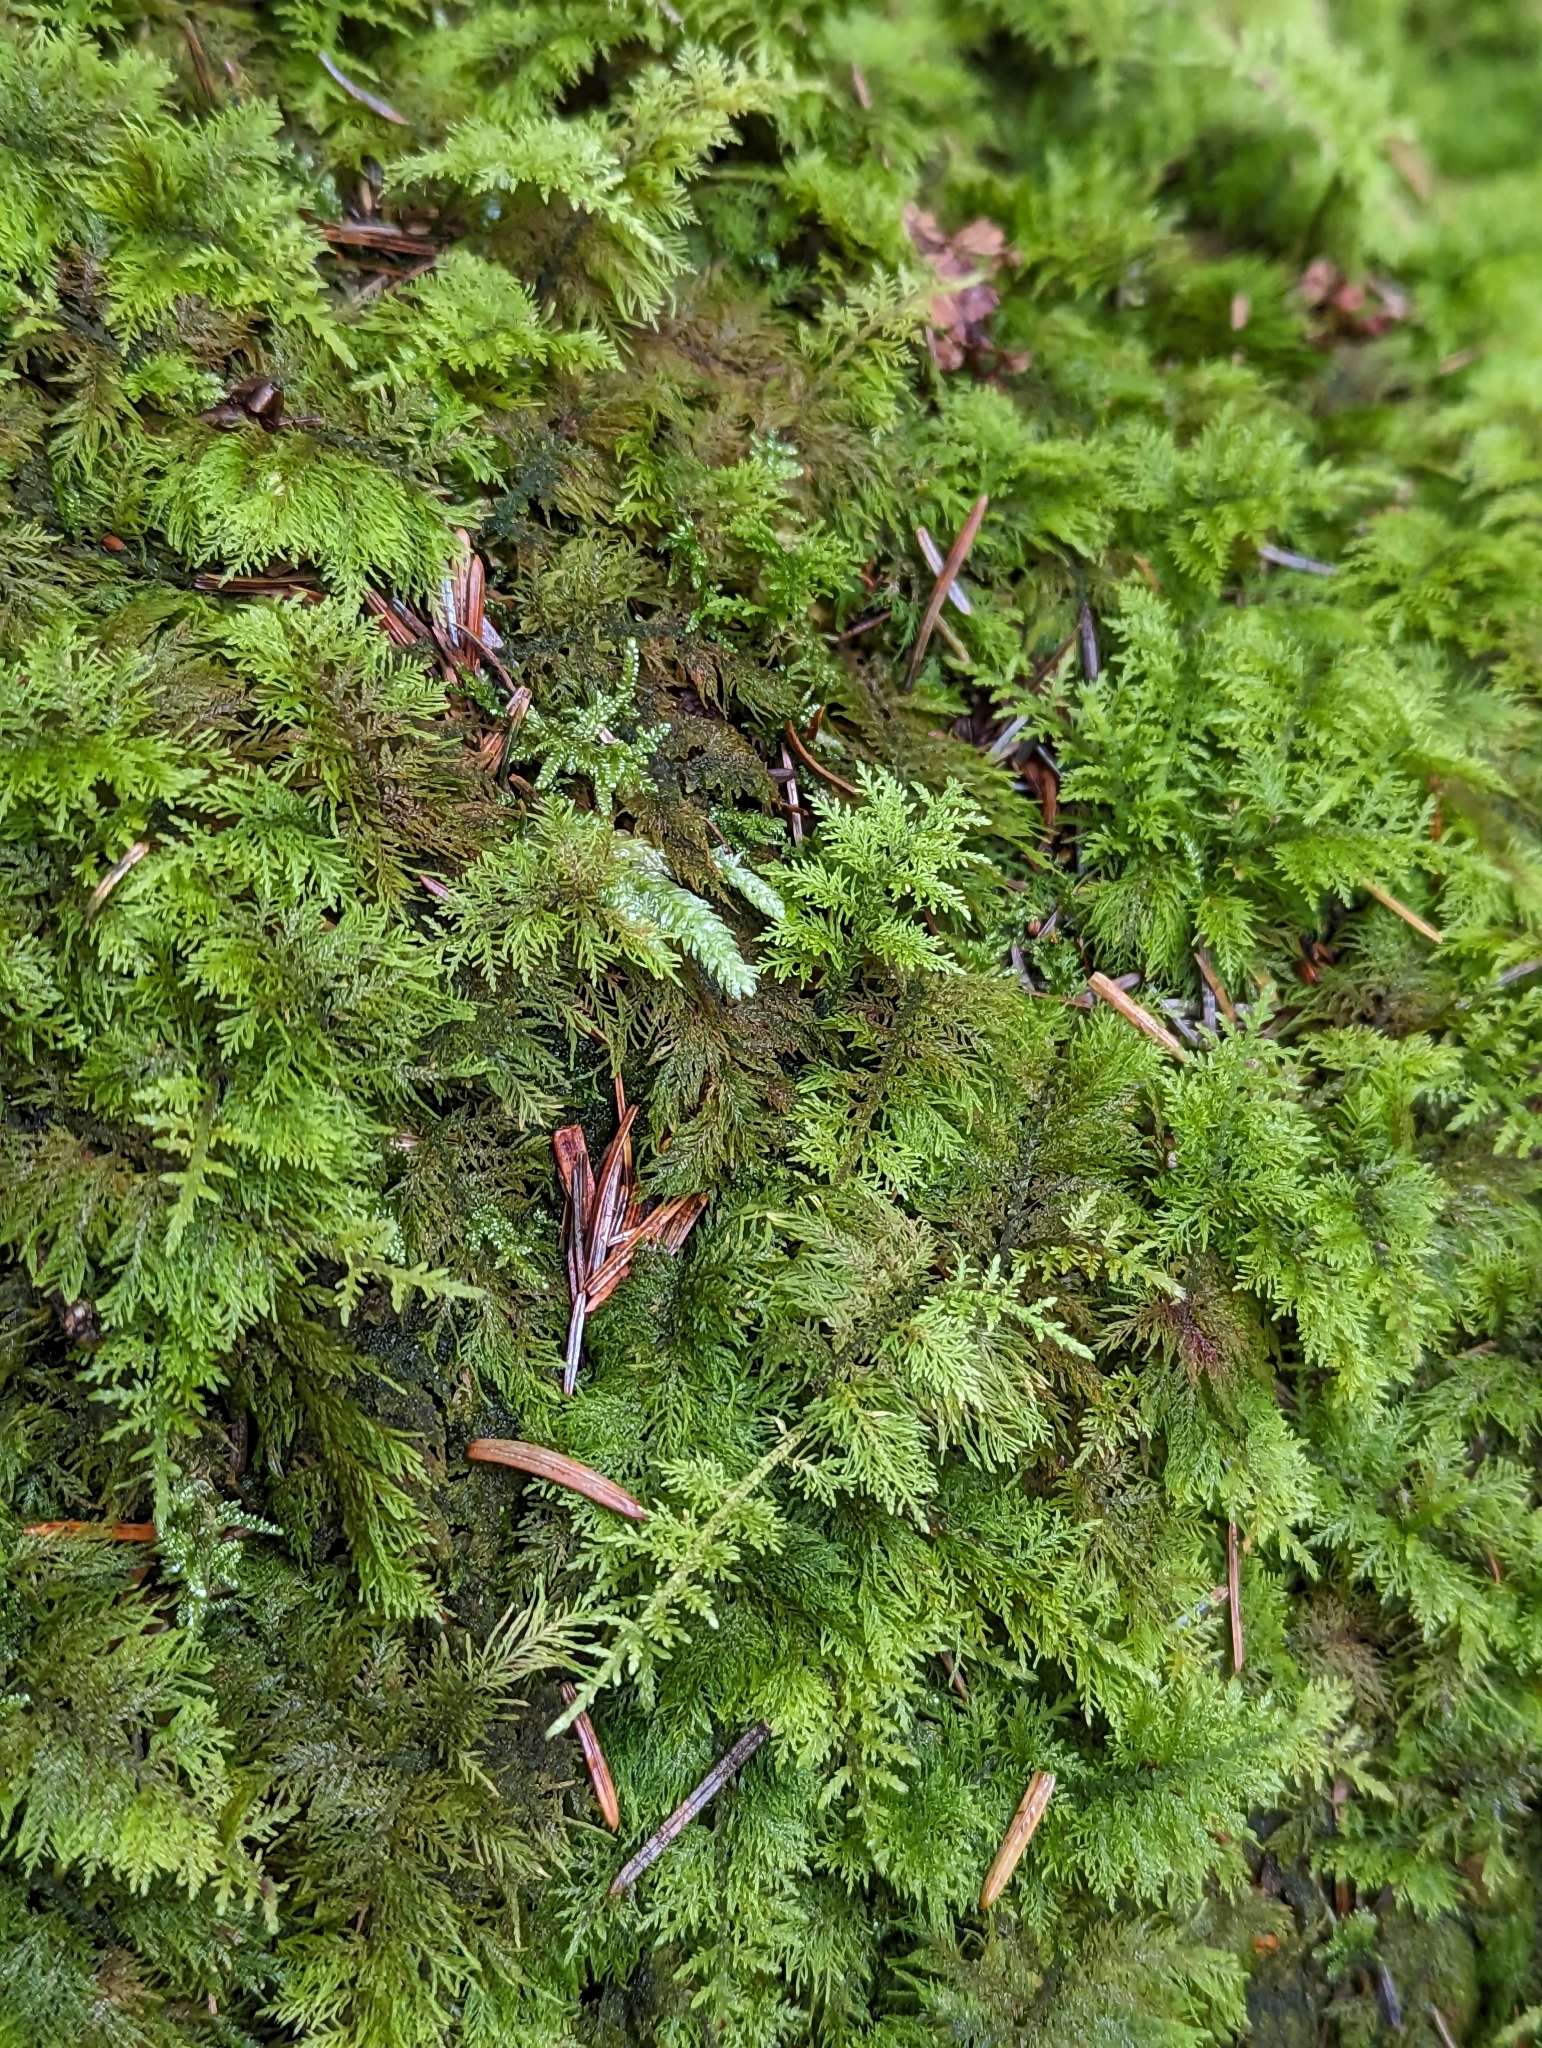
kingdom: Plantae
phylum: Bryophyta
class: Bryopsida
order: Hypnales
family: Thuidiaceae
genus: Thuidium
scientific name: Thuidium tamariscinum
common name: Common tamarisk-moss
